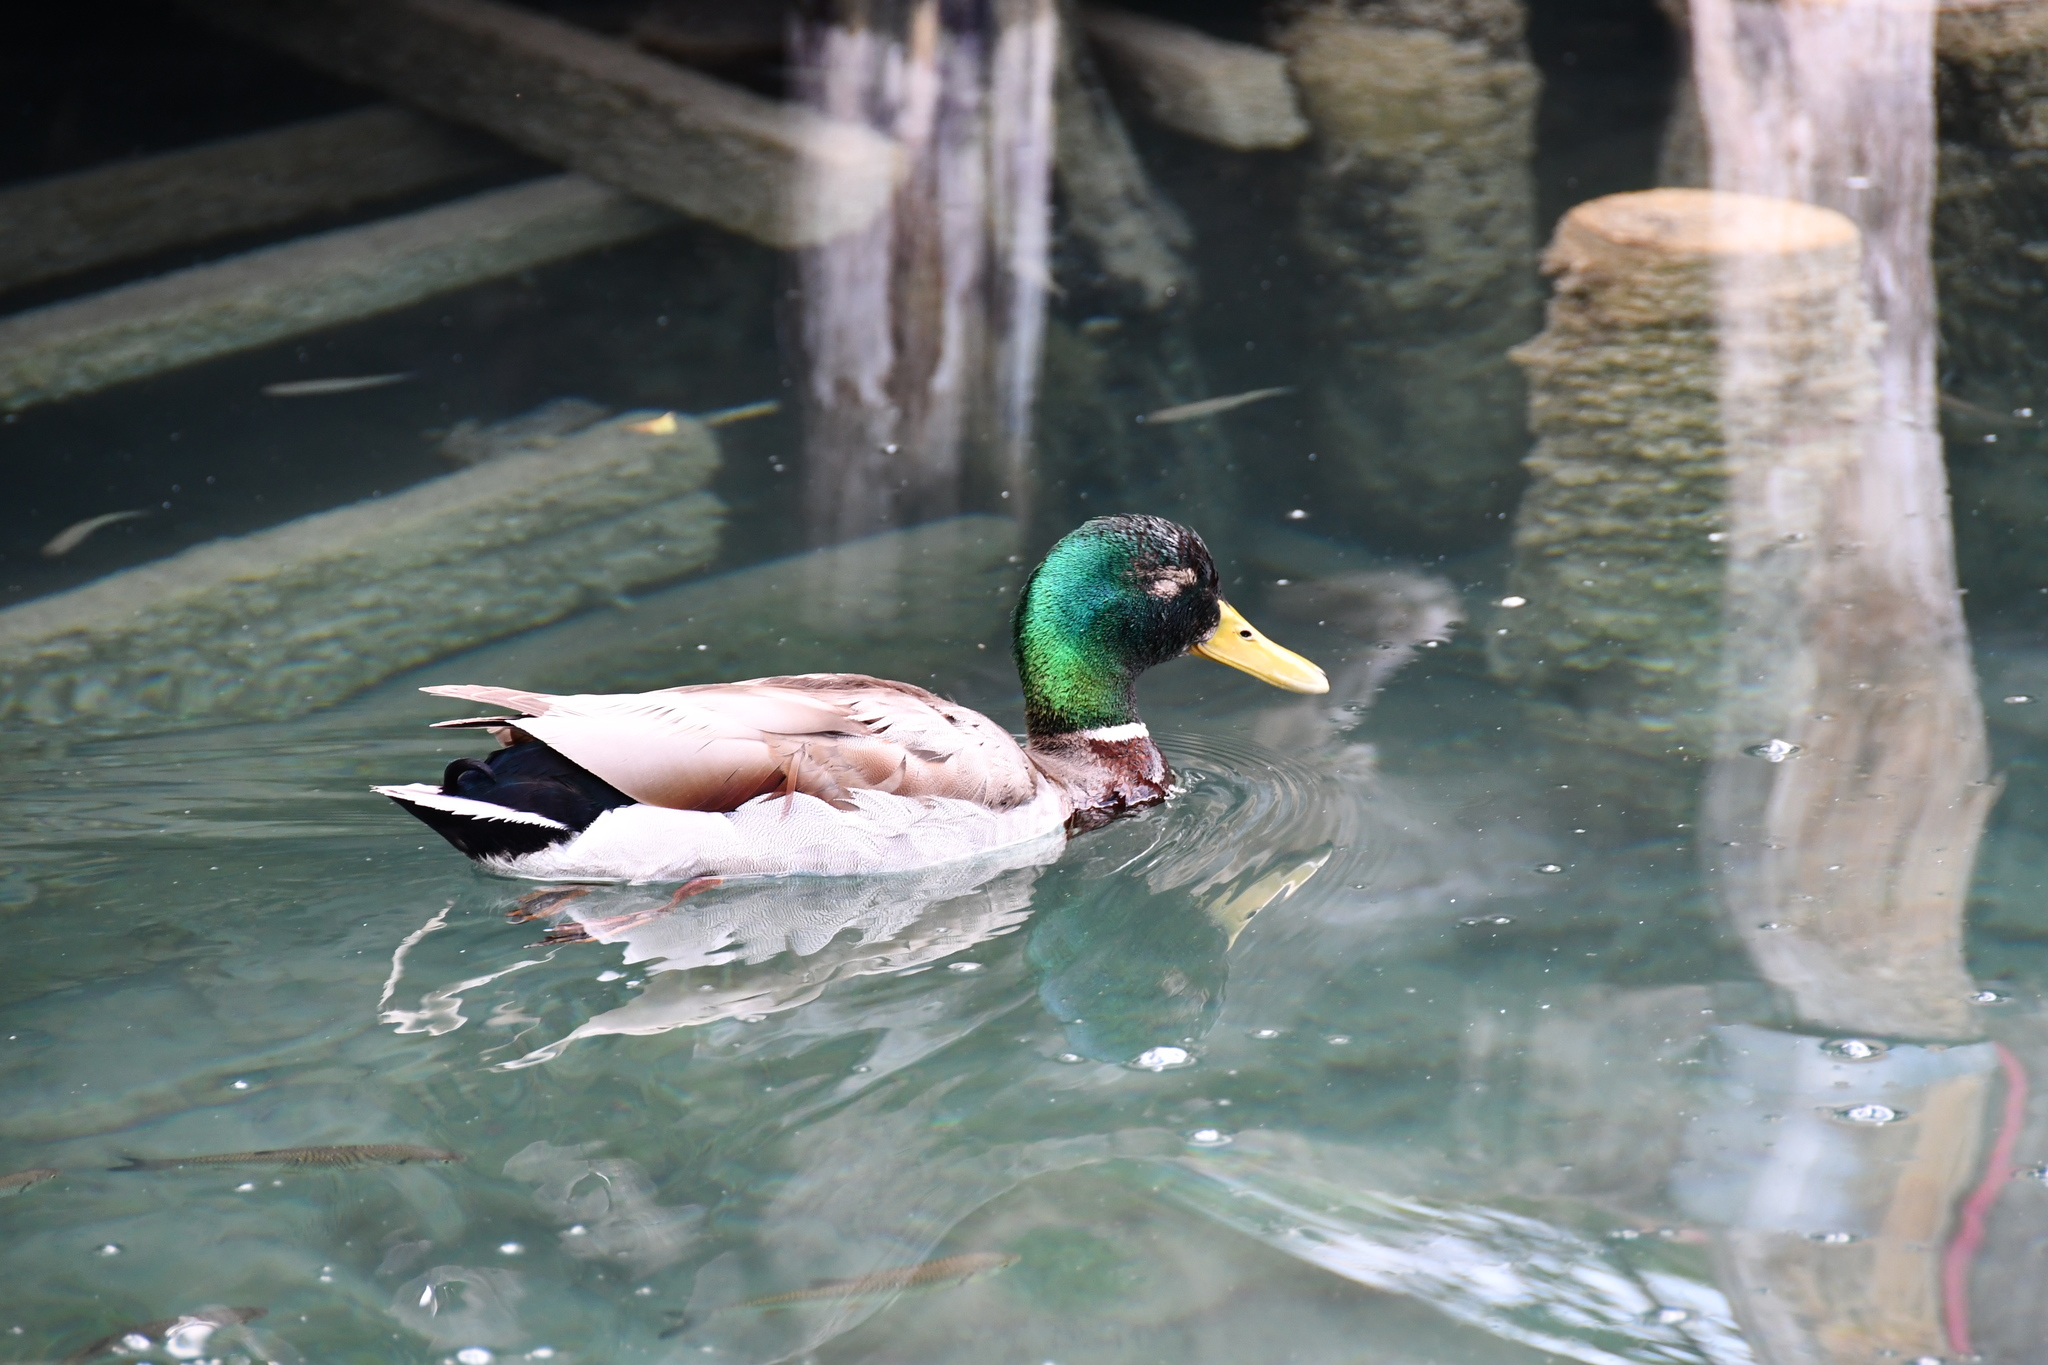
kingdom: Animalia
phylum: Chordata
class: Aves
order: Anseriformes
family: Anatidae
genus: Anas
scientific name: Anas platyrhynchos
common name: Mallard
